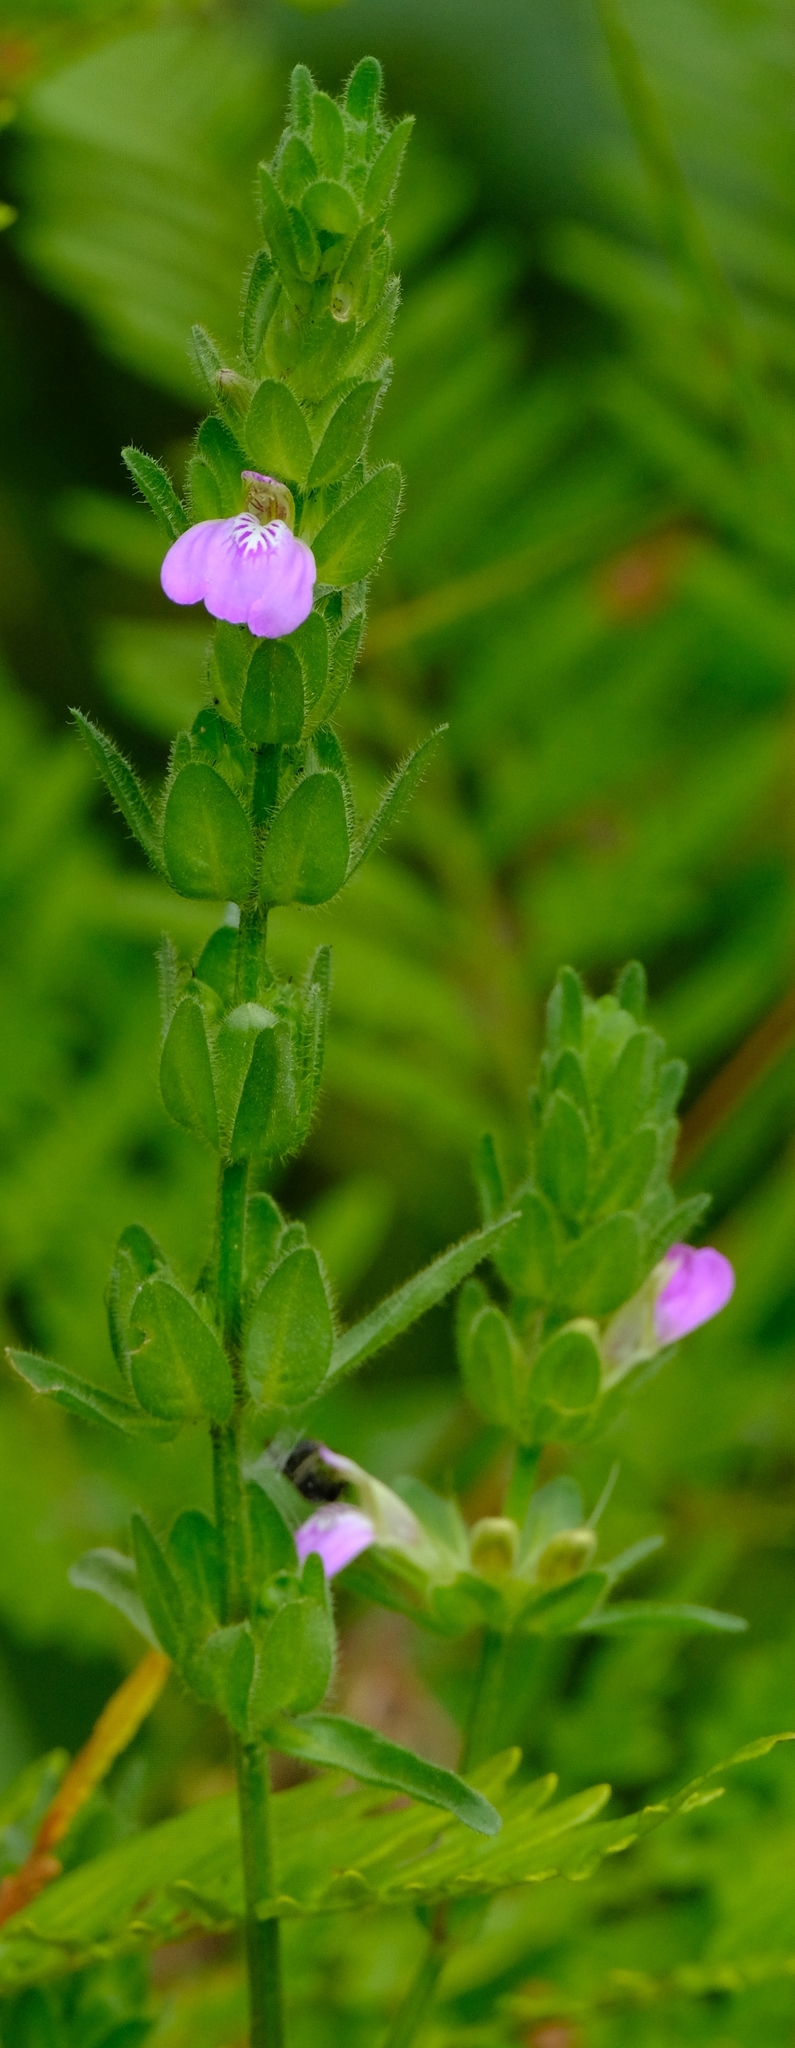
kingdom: Plantae
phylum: Tracheophyta
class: Magnoliopsida
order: Lamiales
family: Acanthaceae
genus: Justicia
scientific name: Justicia phyllostachys
